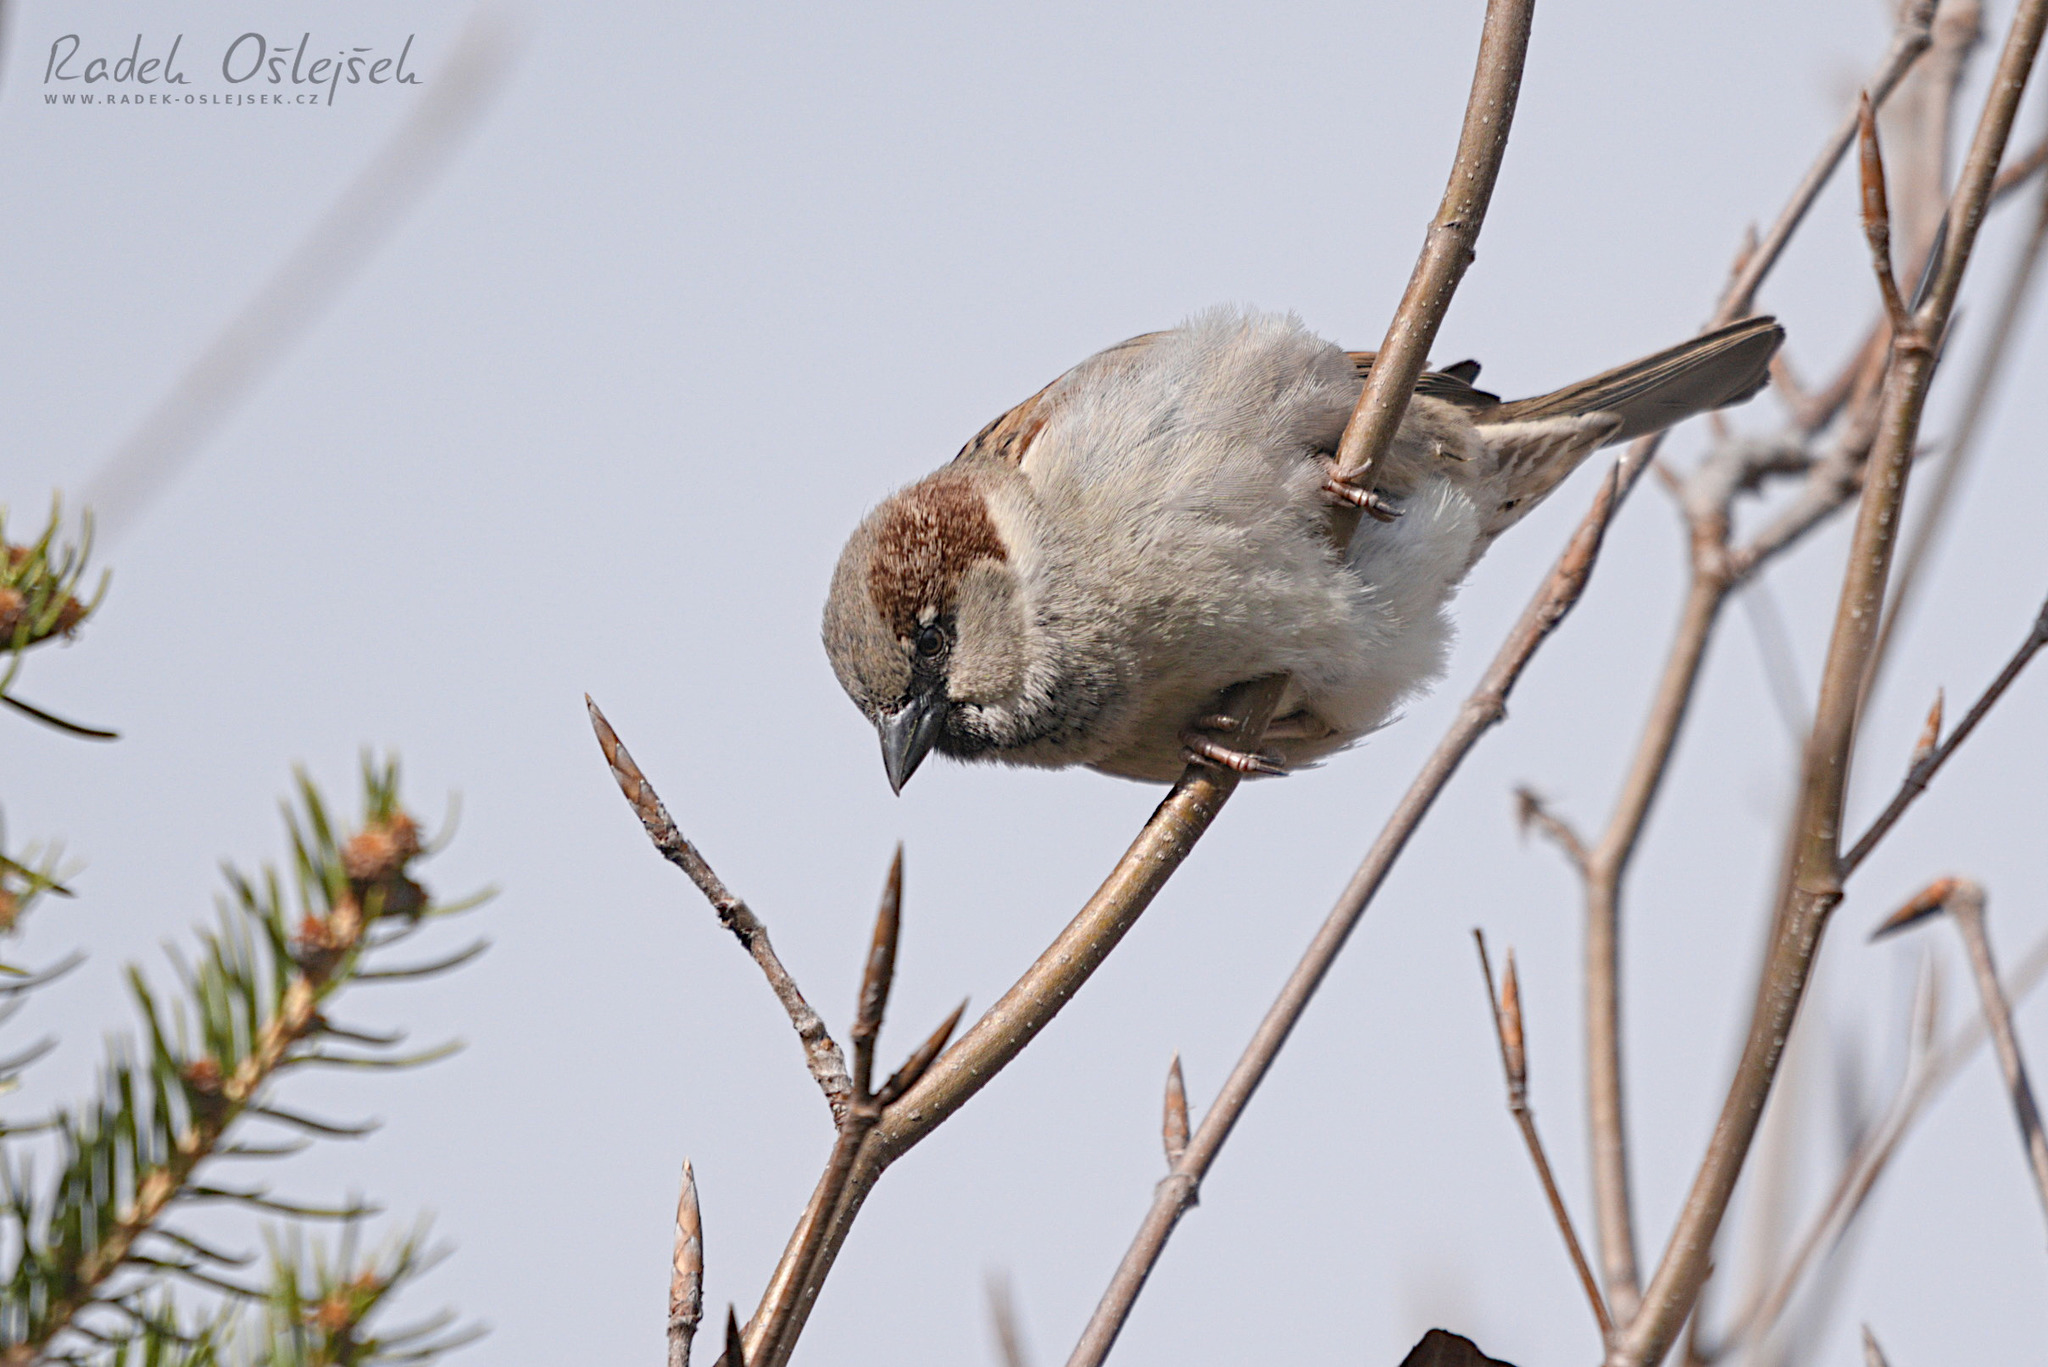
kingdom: Animalia
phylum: Chordata
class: Aves
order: Passeriformes
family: Passeridae
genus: Passer
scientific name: Passer domesticus
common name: House sparrow
